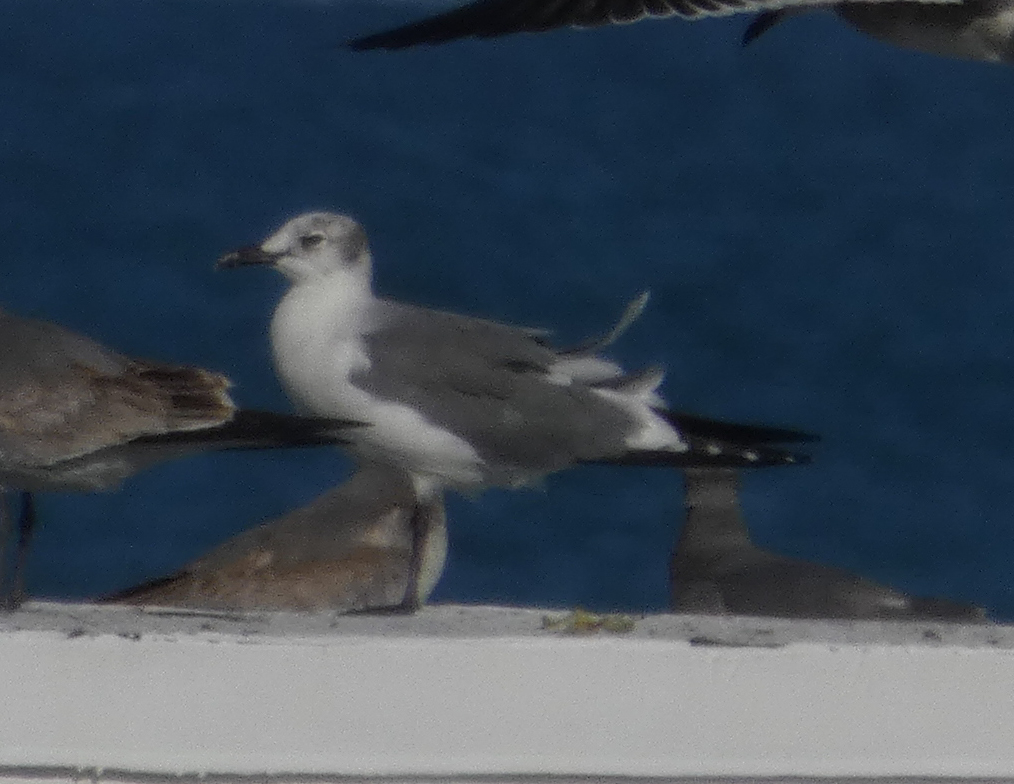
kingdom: Animalia
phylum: Chordata
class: Aves
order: Charadriiformes
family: Laridae
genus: Leucophaeus
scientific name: Leucophaeus atricilla
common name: Laughing gull
